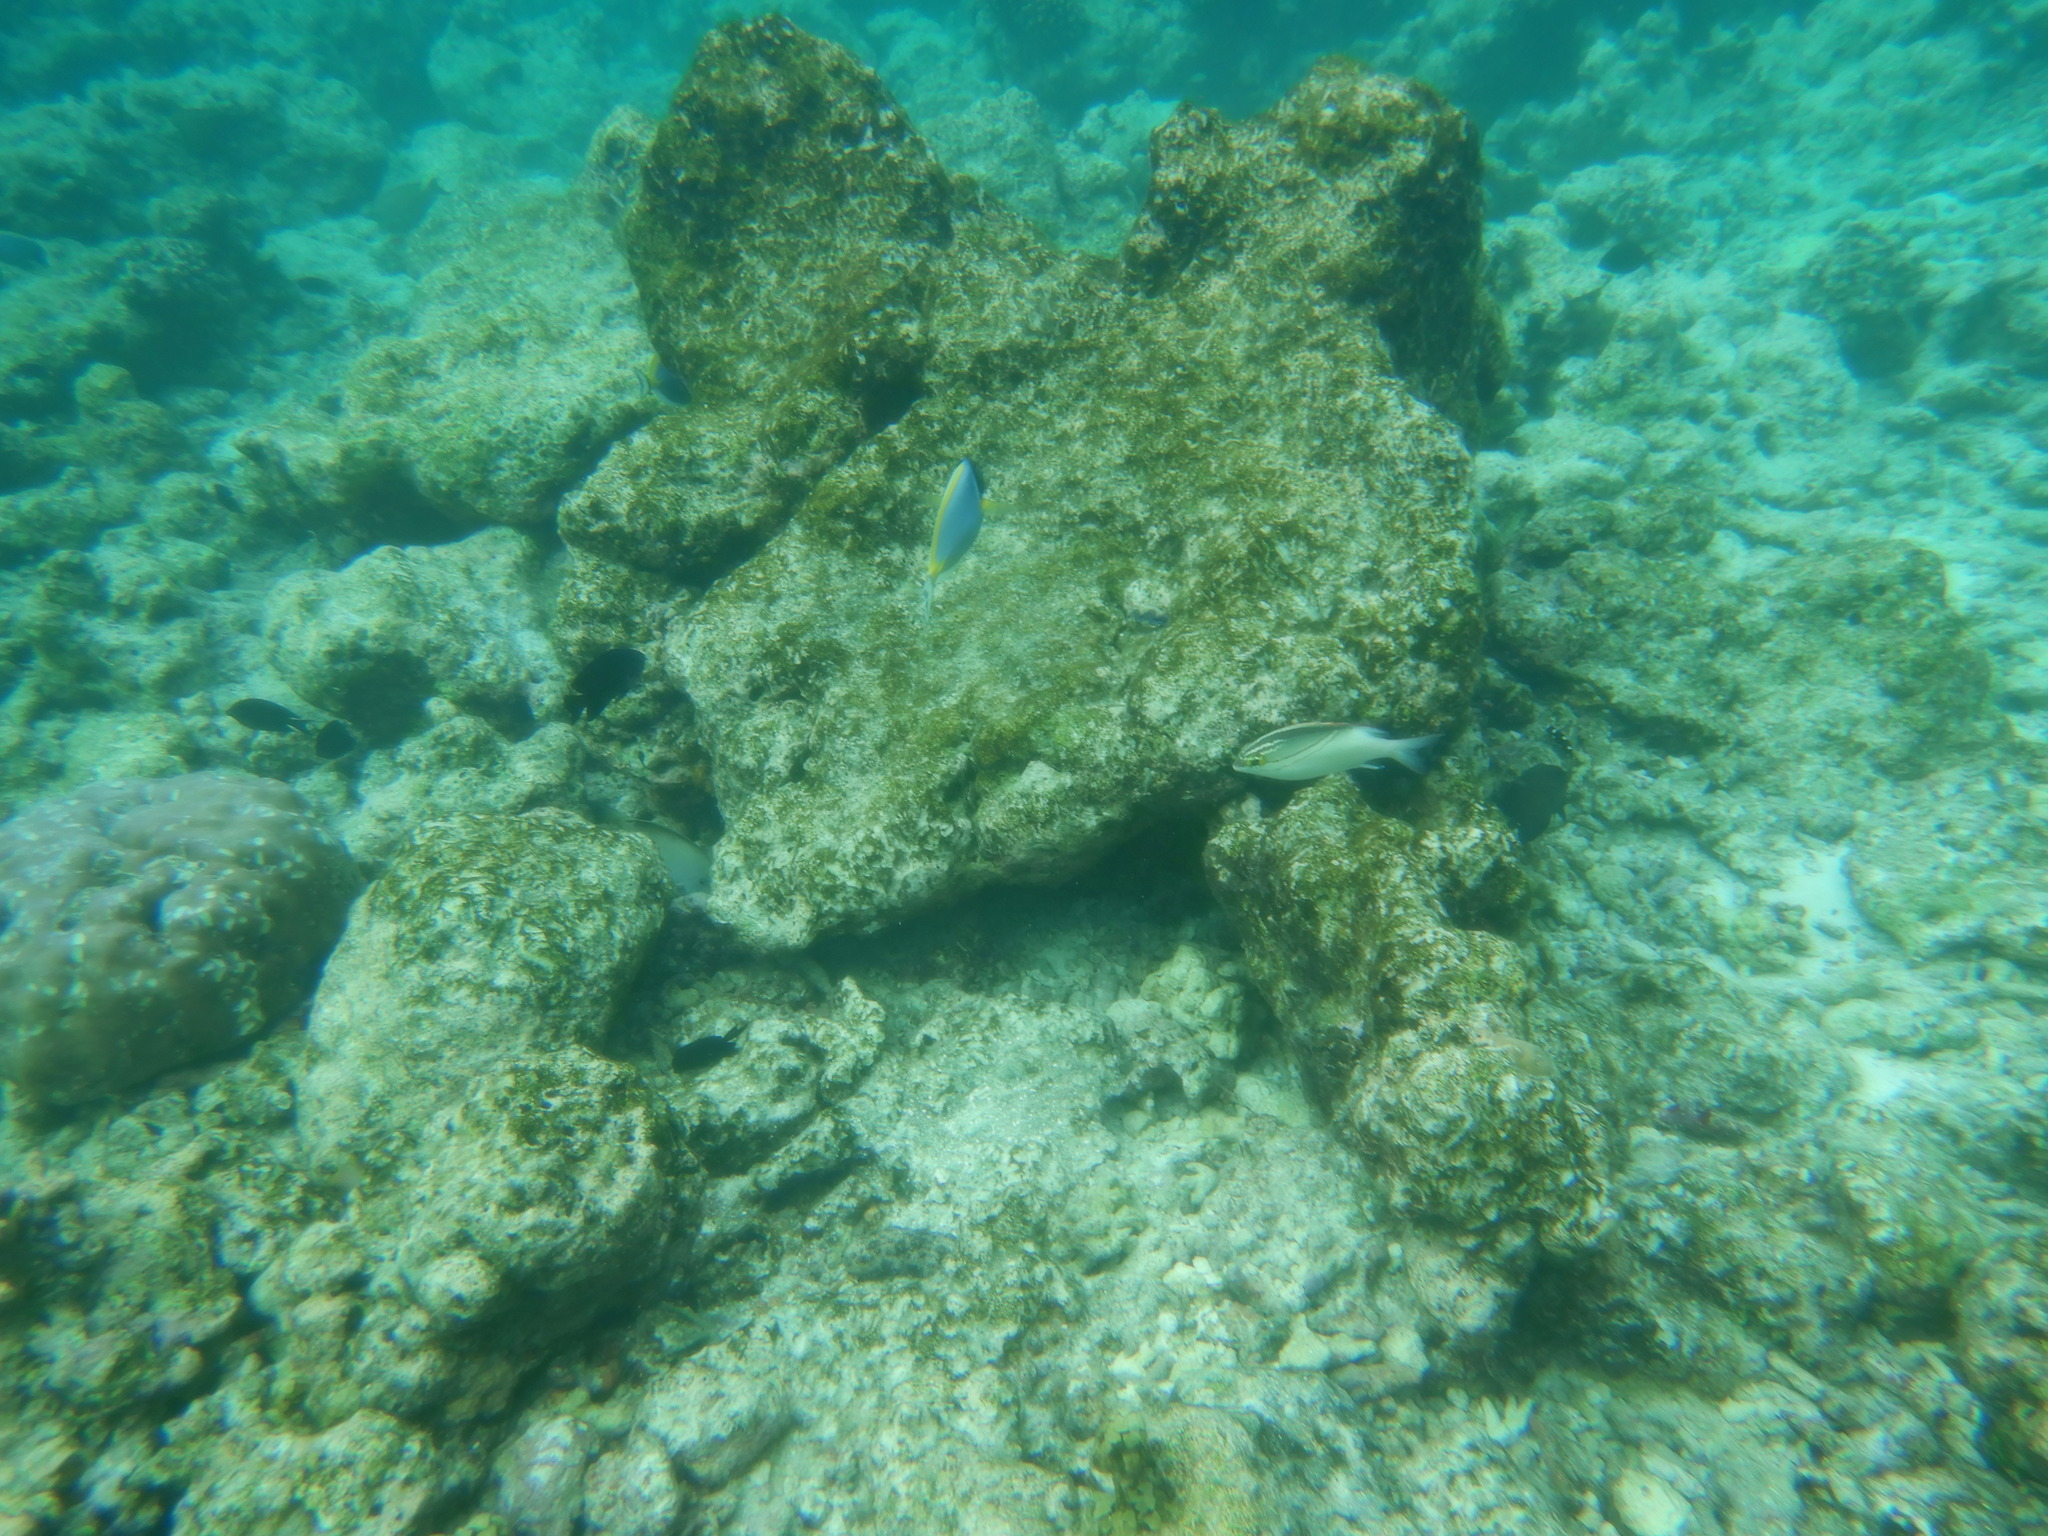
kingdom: Animalia
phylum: Chordata
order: Perciformes
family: Nemipteridae
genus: Scolopsis
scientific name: Scolopsis bilineata
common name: Two-lined monocle bream
